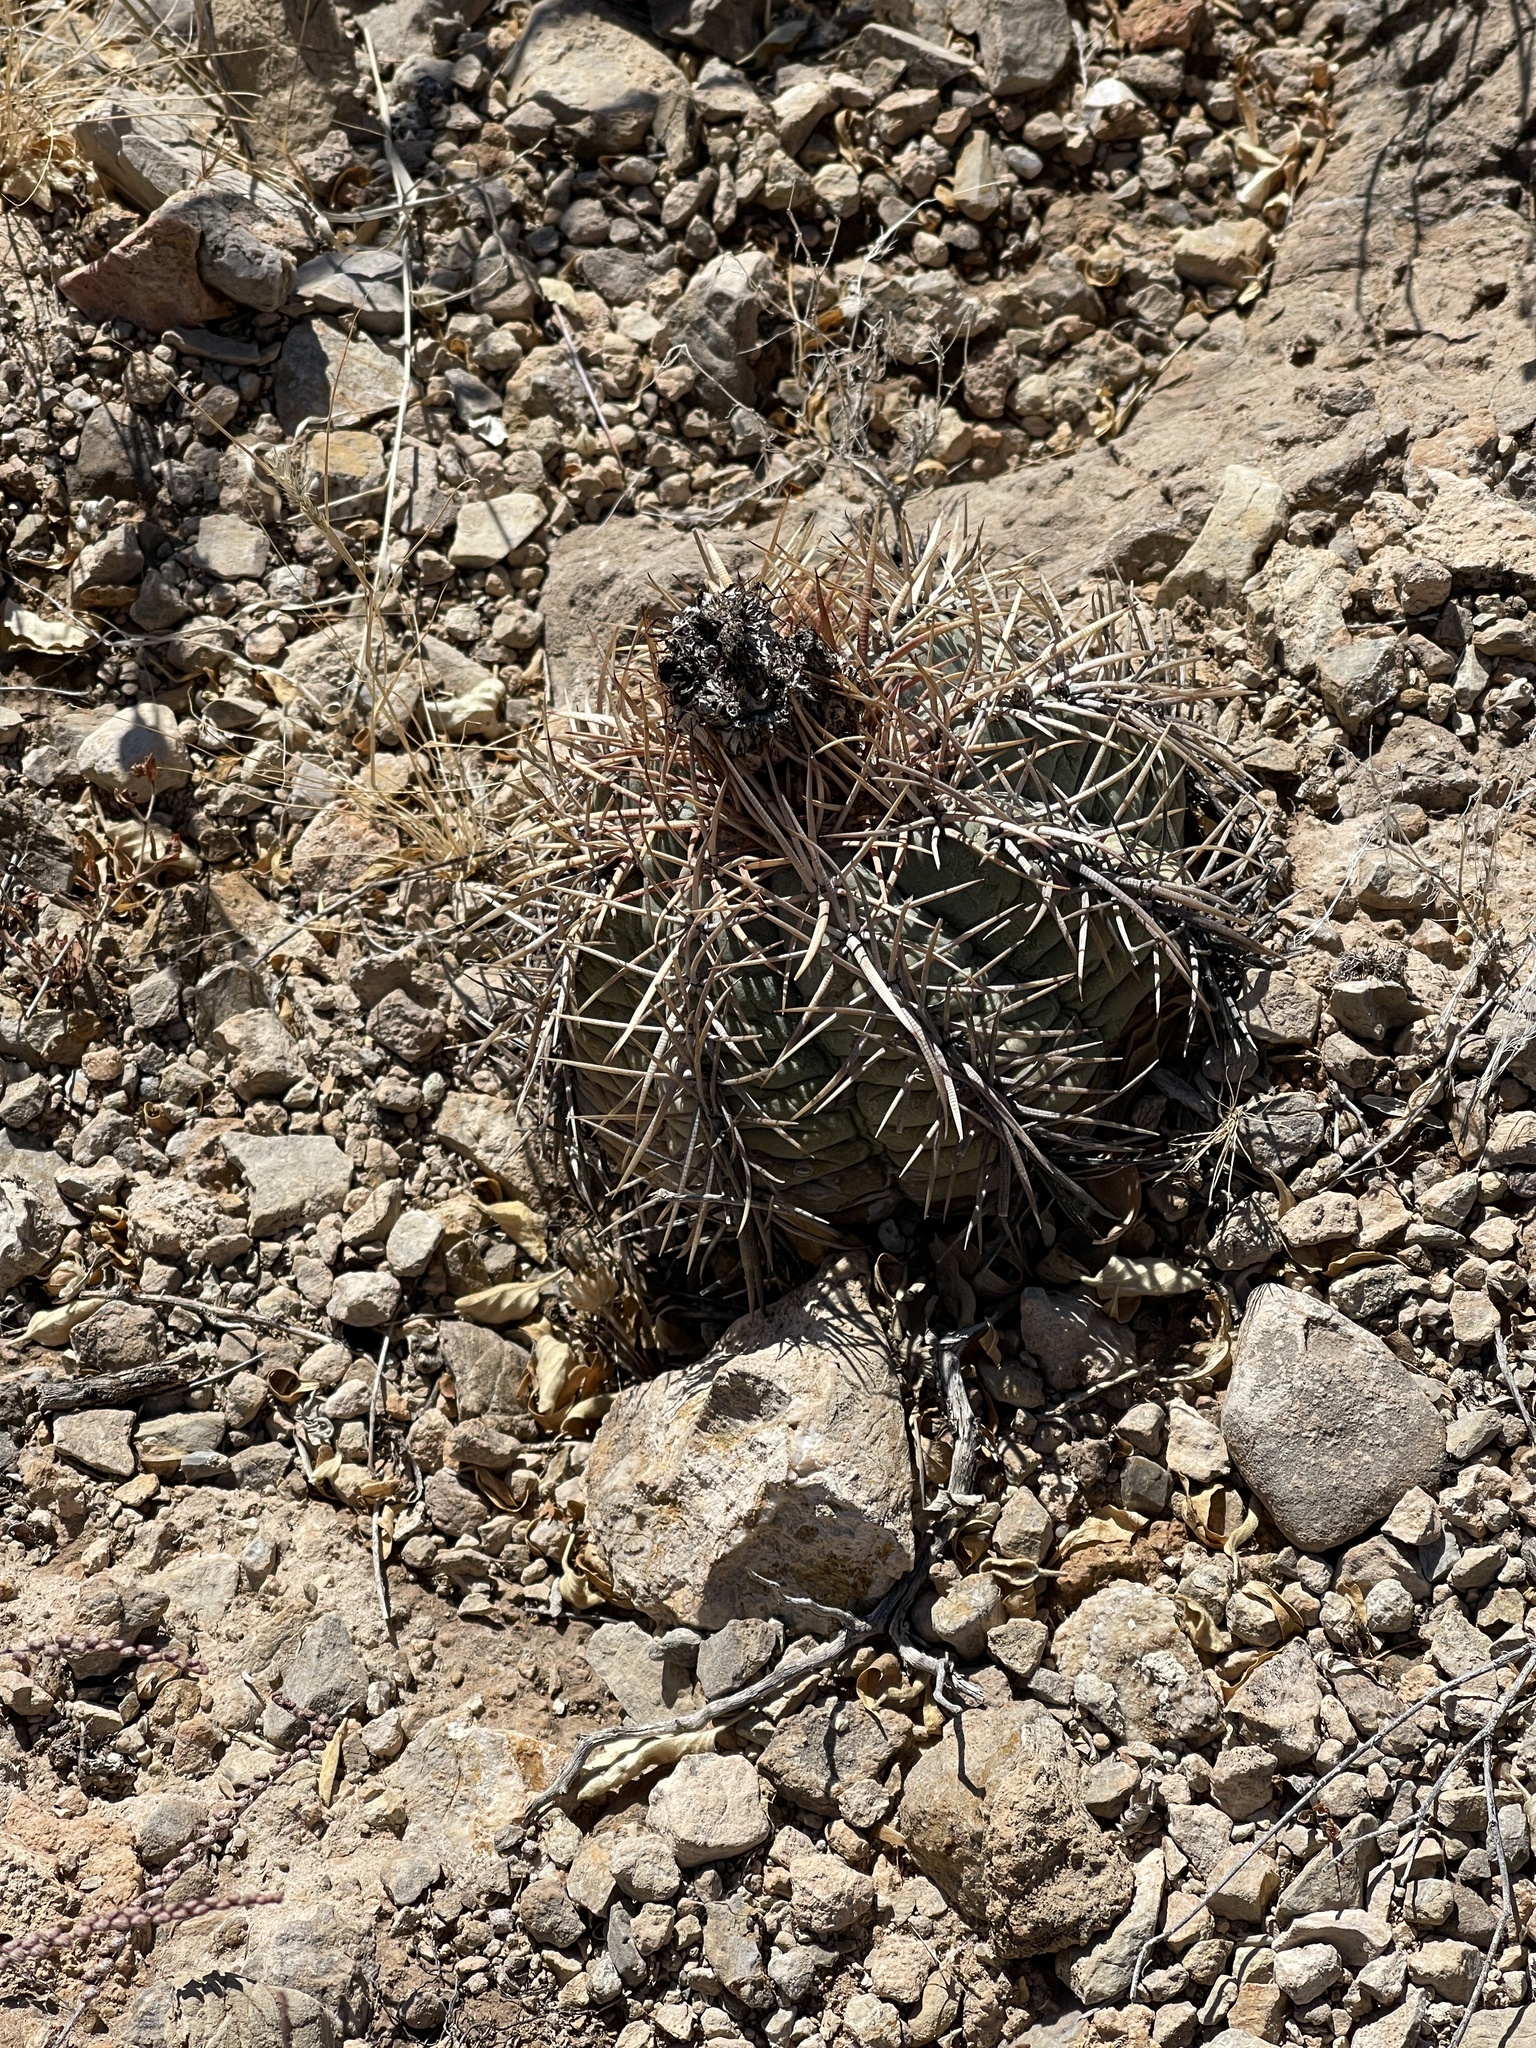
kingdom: Plantae
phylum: Tracheophyta
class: Magnoliopsida
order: Caryophyllales
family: Cactaceae
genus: Echinocactus
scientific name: Echinocactus horizonthalonius
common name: Devilshead
